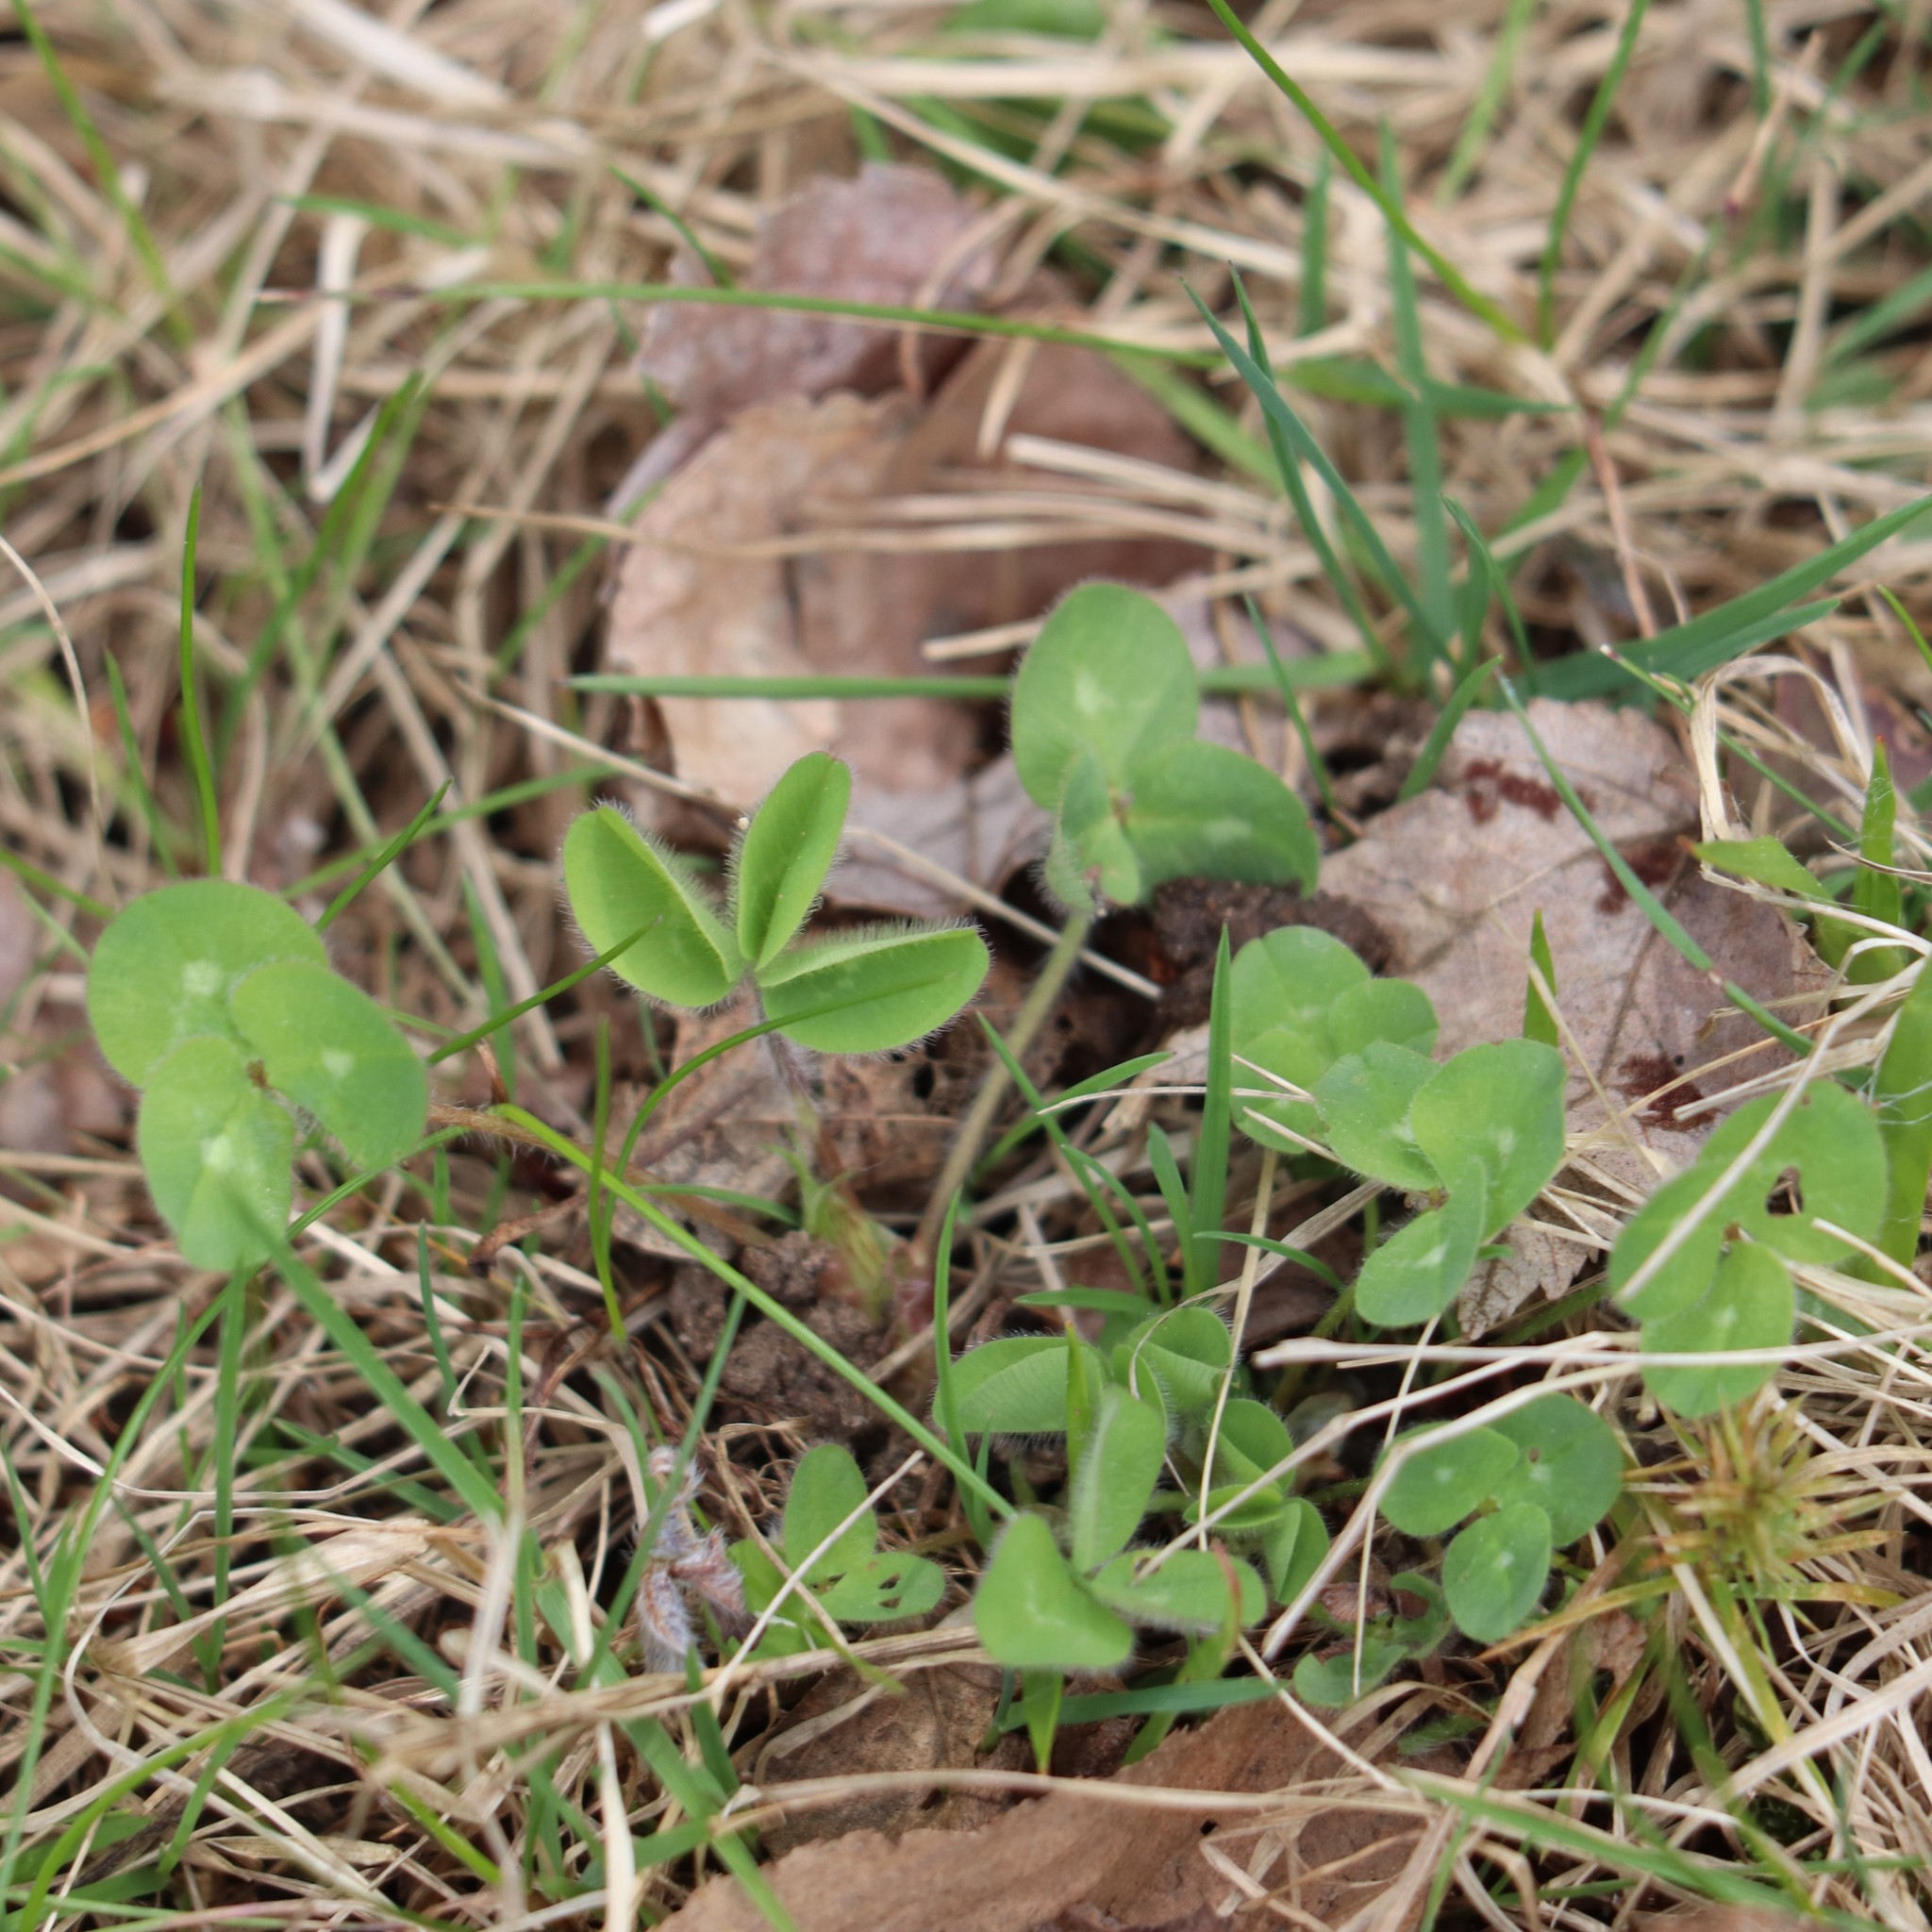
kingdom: Plantae
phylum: Tracheophyta
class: Magnoliopsida
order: Fabales
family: Fabaceae
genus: Trifolium
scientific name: Trifolium pratense
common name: Red clover
